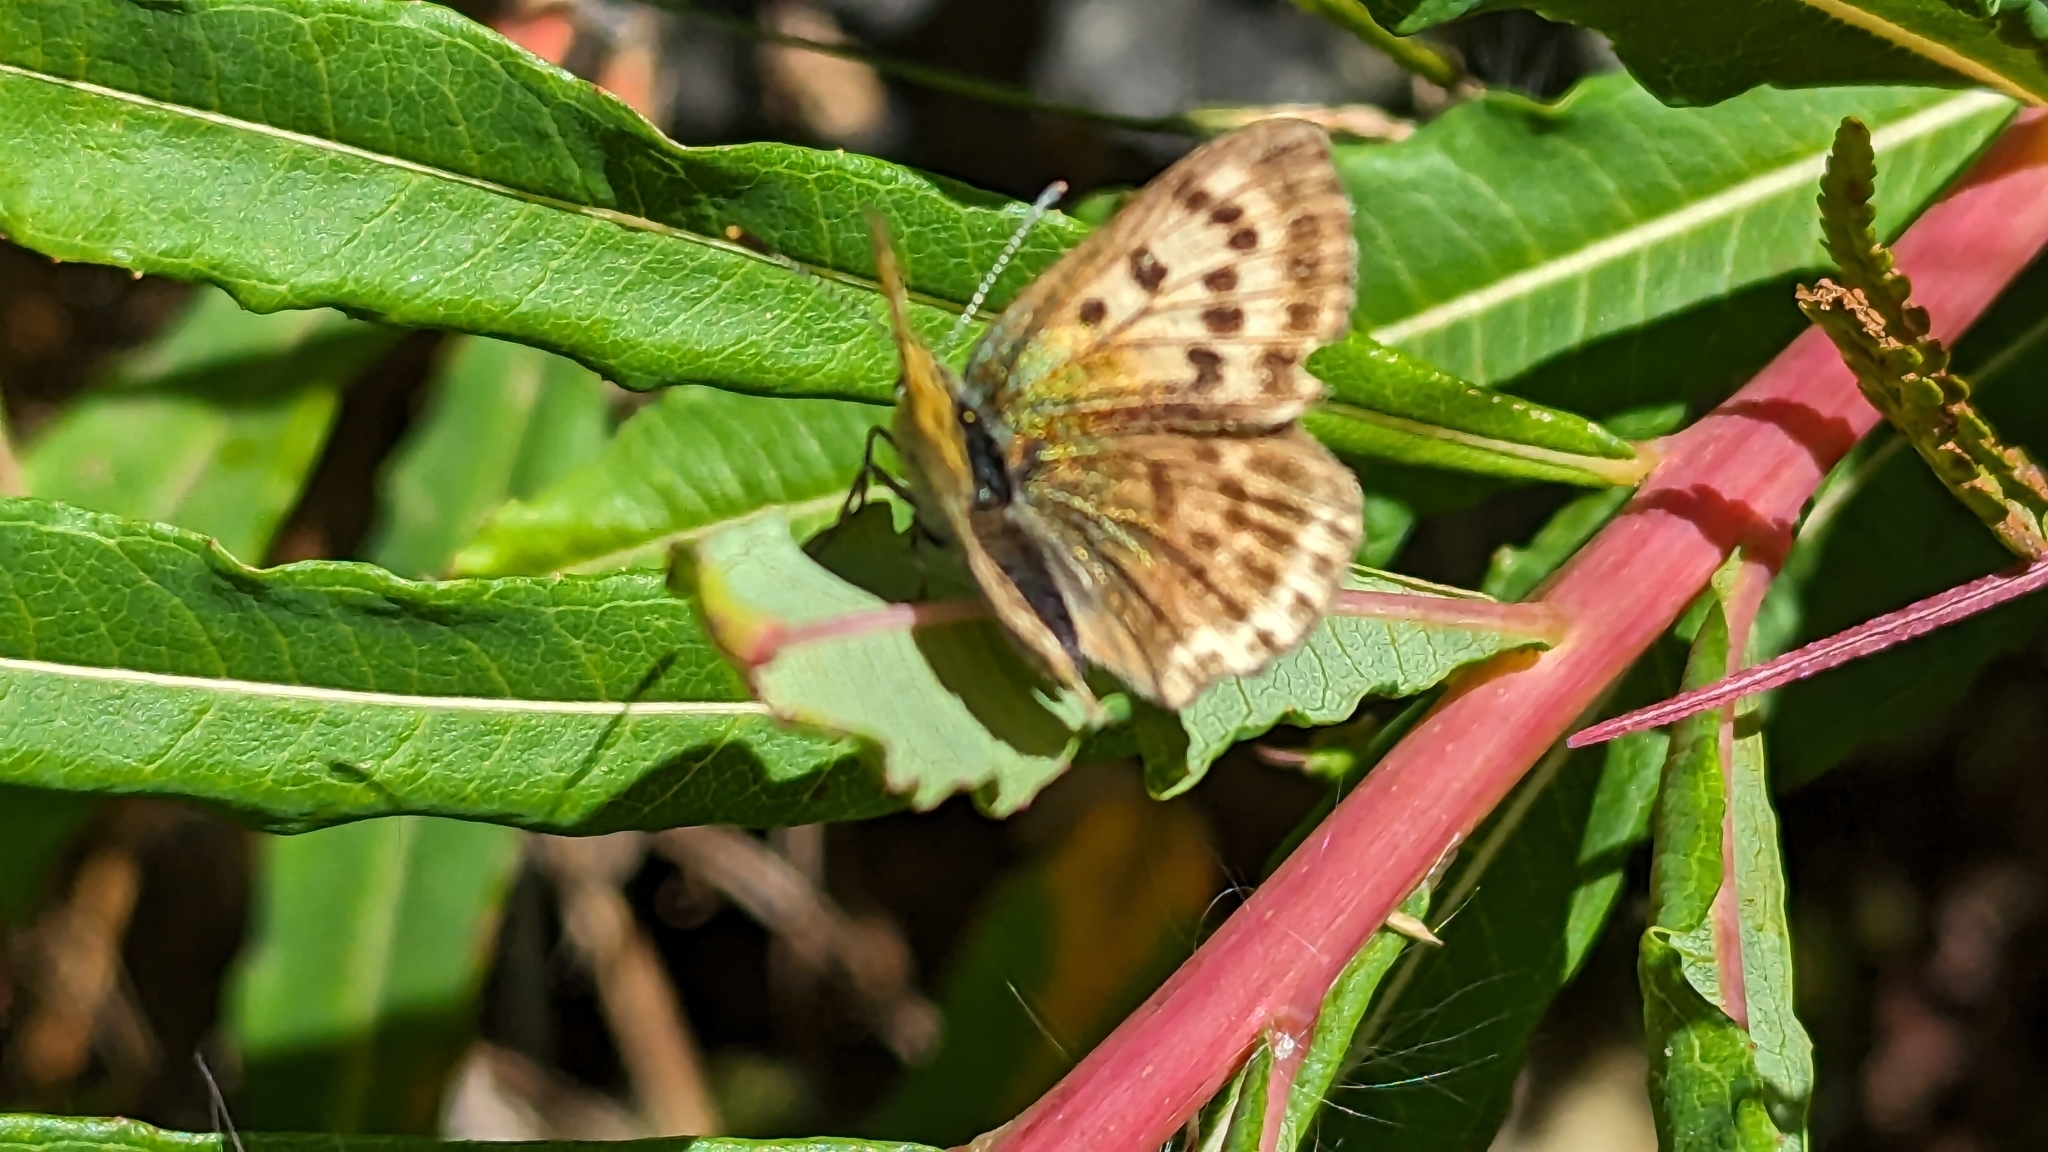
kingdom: Animalia
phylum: Arthropoda
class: Insecta
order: Lepidoptera
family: Lycaenidae
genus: Lycaena
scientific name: Lycaena virgaureae
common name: Scarce copper
